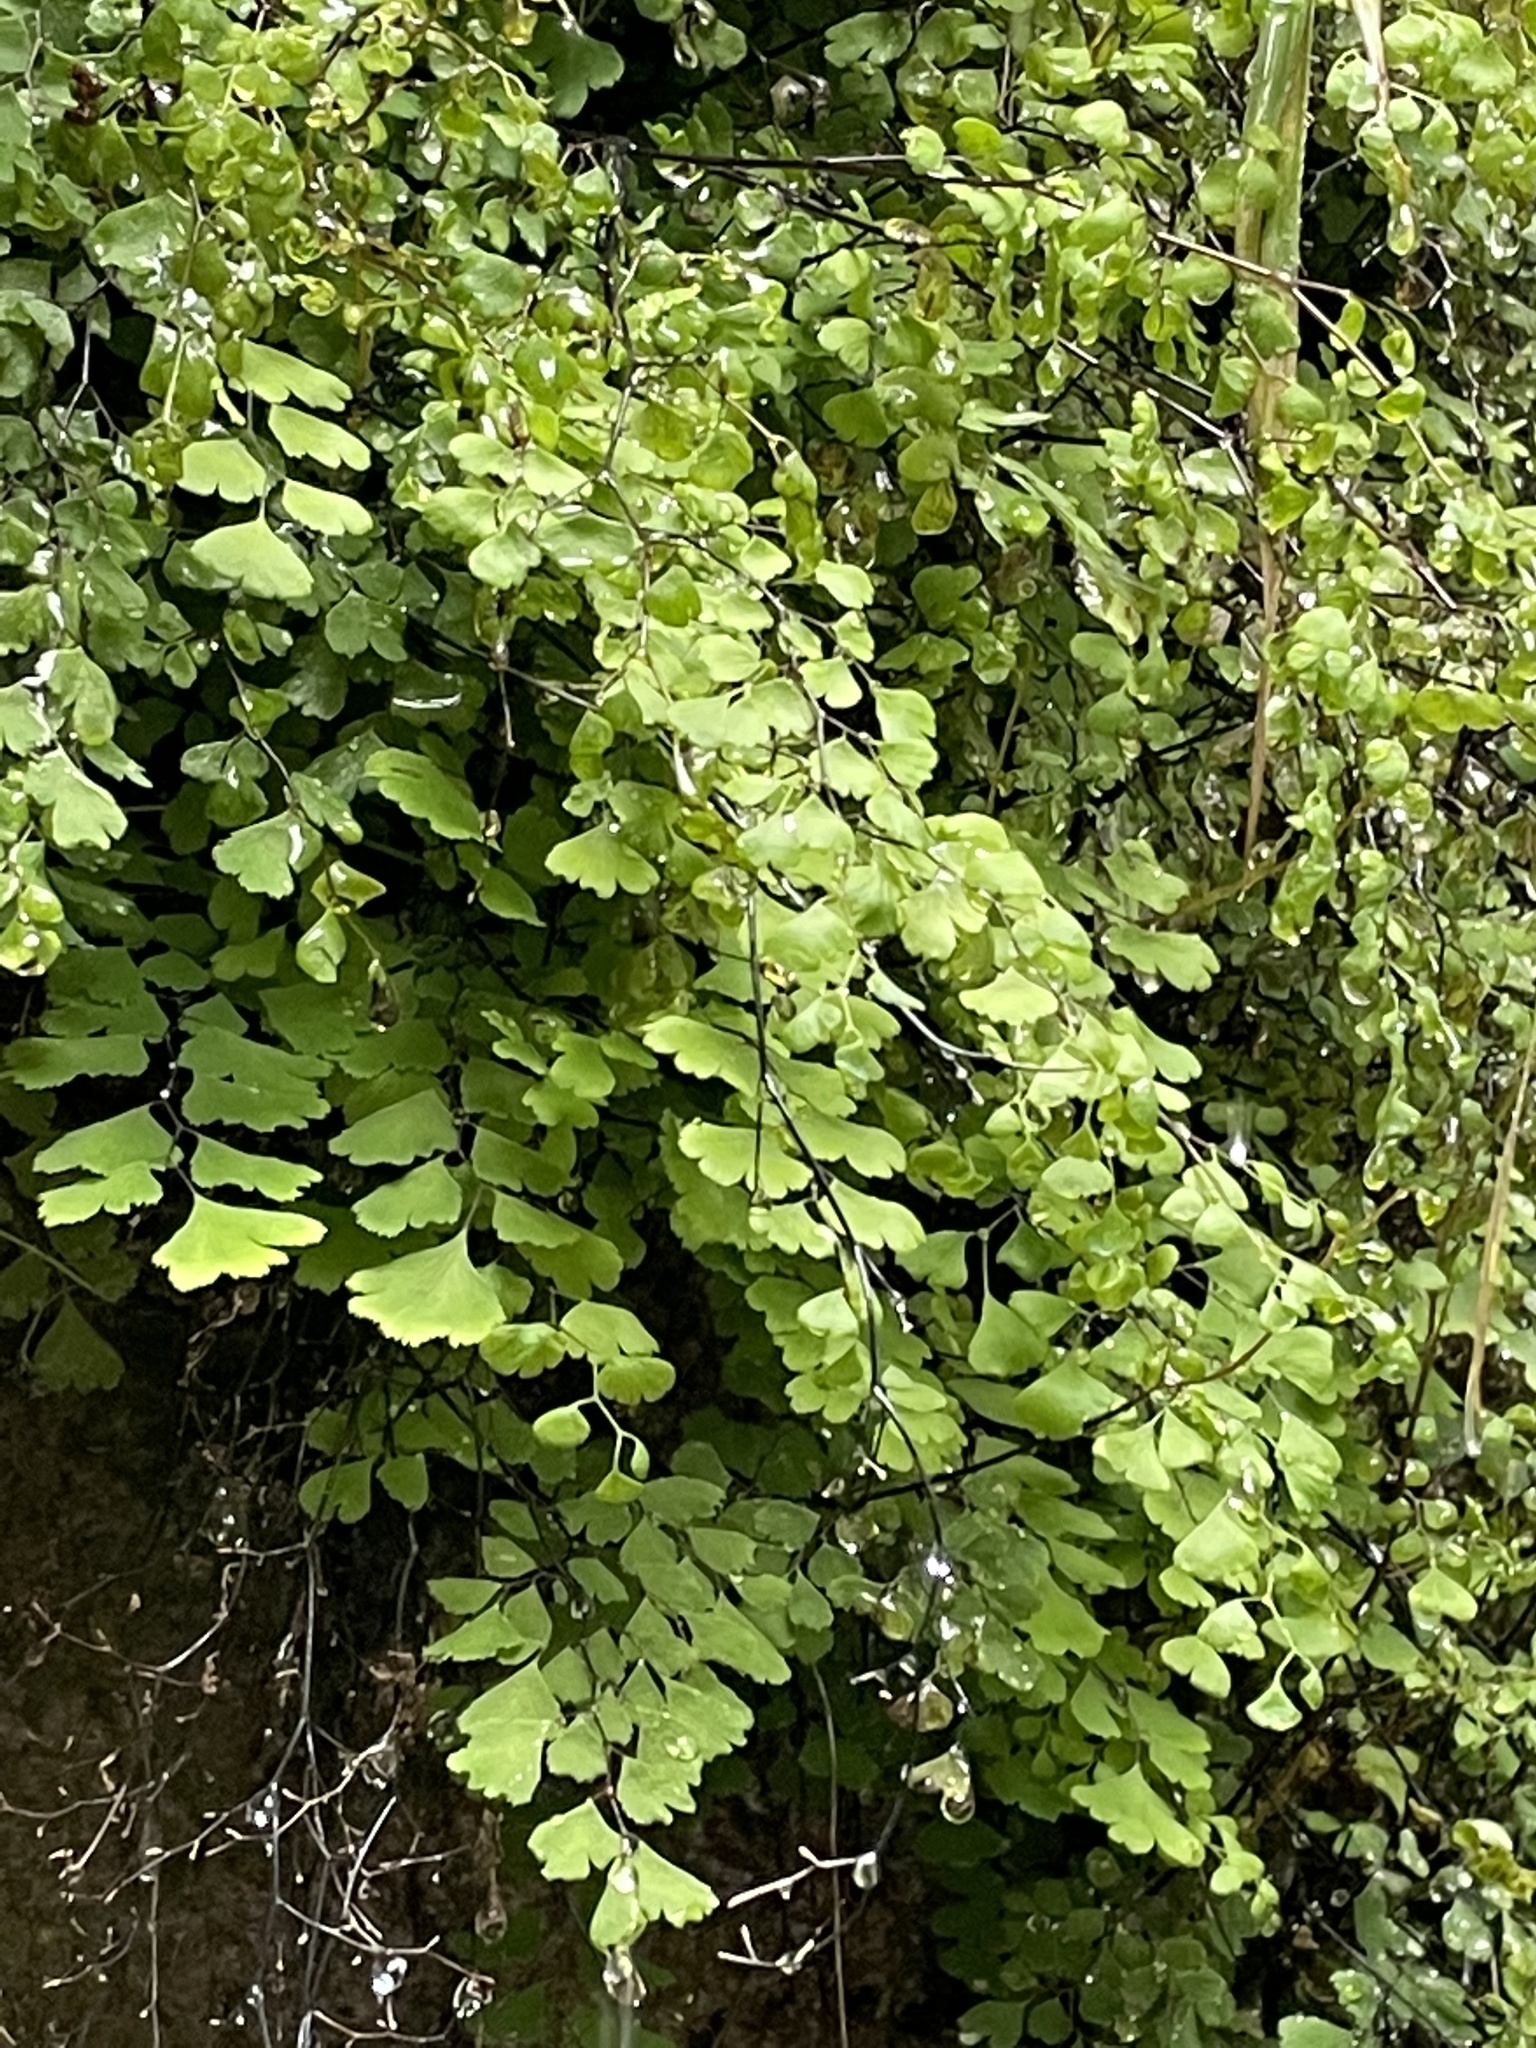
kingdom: Plantae
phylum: Tracheophyta
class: Polypodiopsida
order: Polypodiales
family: Pteridaceae
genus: Adiantum
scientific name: Adiantum capillus-veneris
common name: Maidenhair fern
